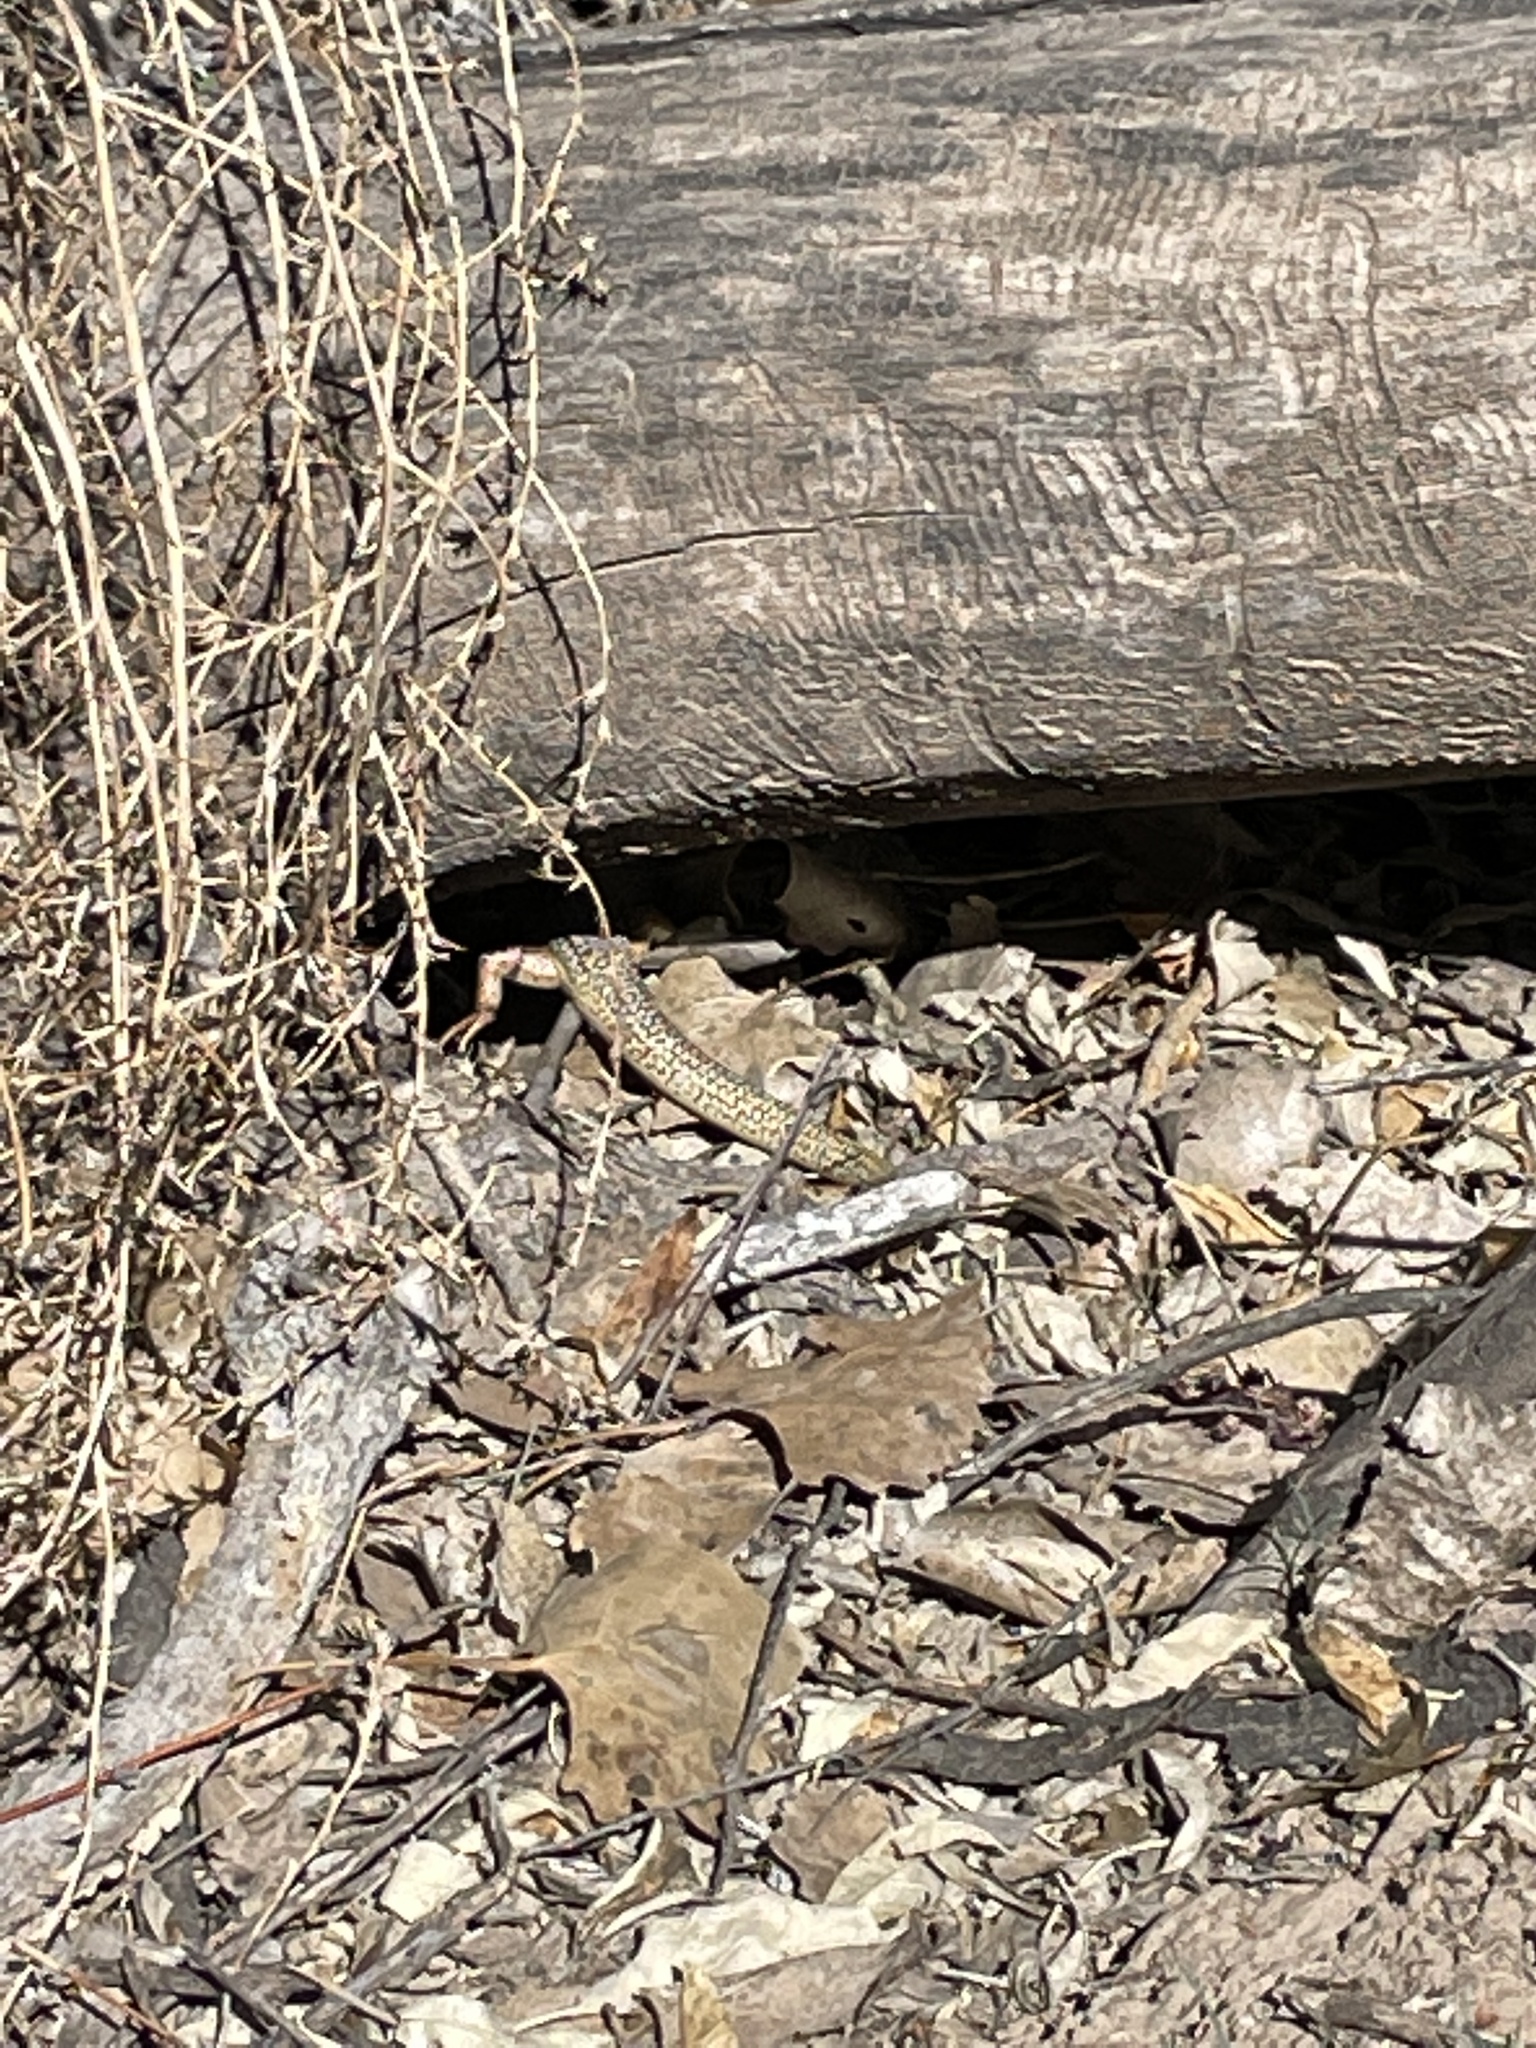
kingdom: Animalia
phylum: Chordata
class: Squamata
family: Scincidae
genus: Plestiodon
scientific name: Plestiodon obsoletus
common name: Great plains skink
